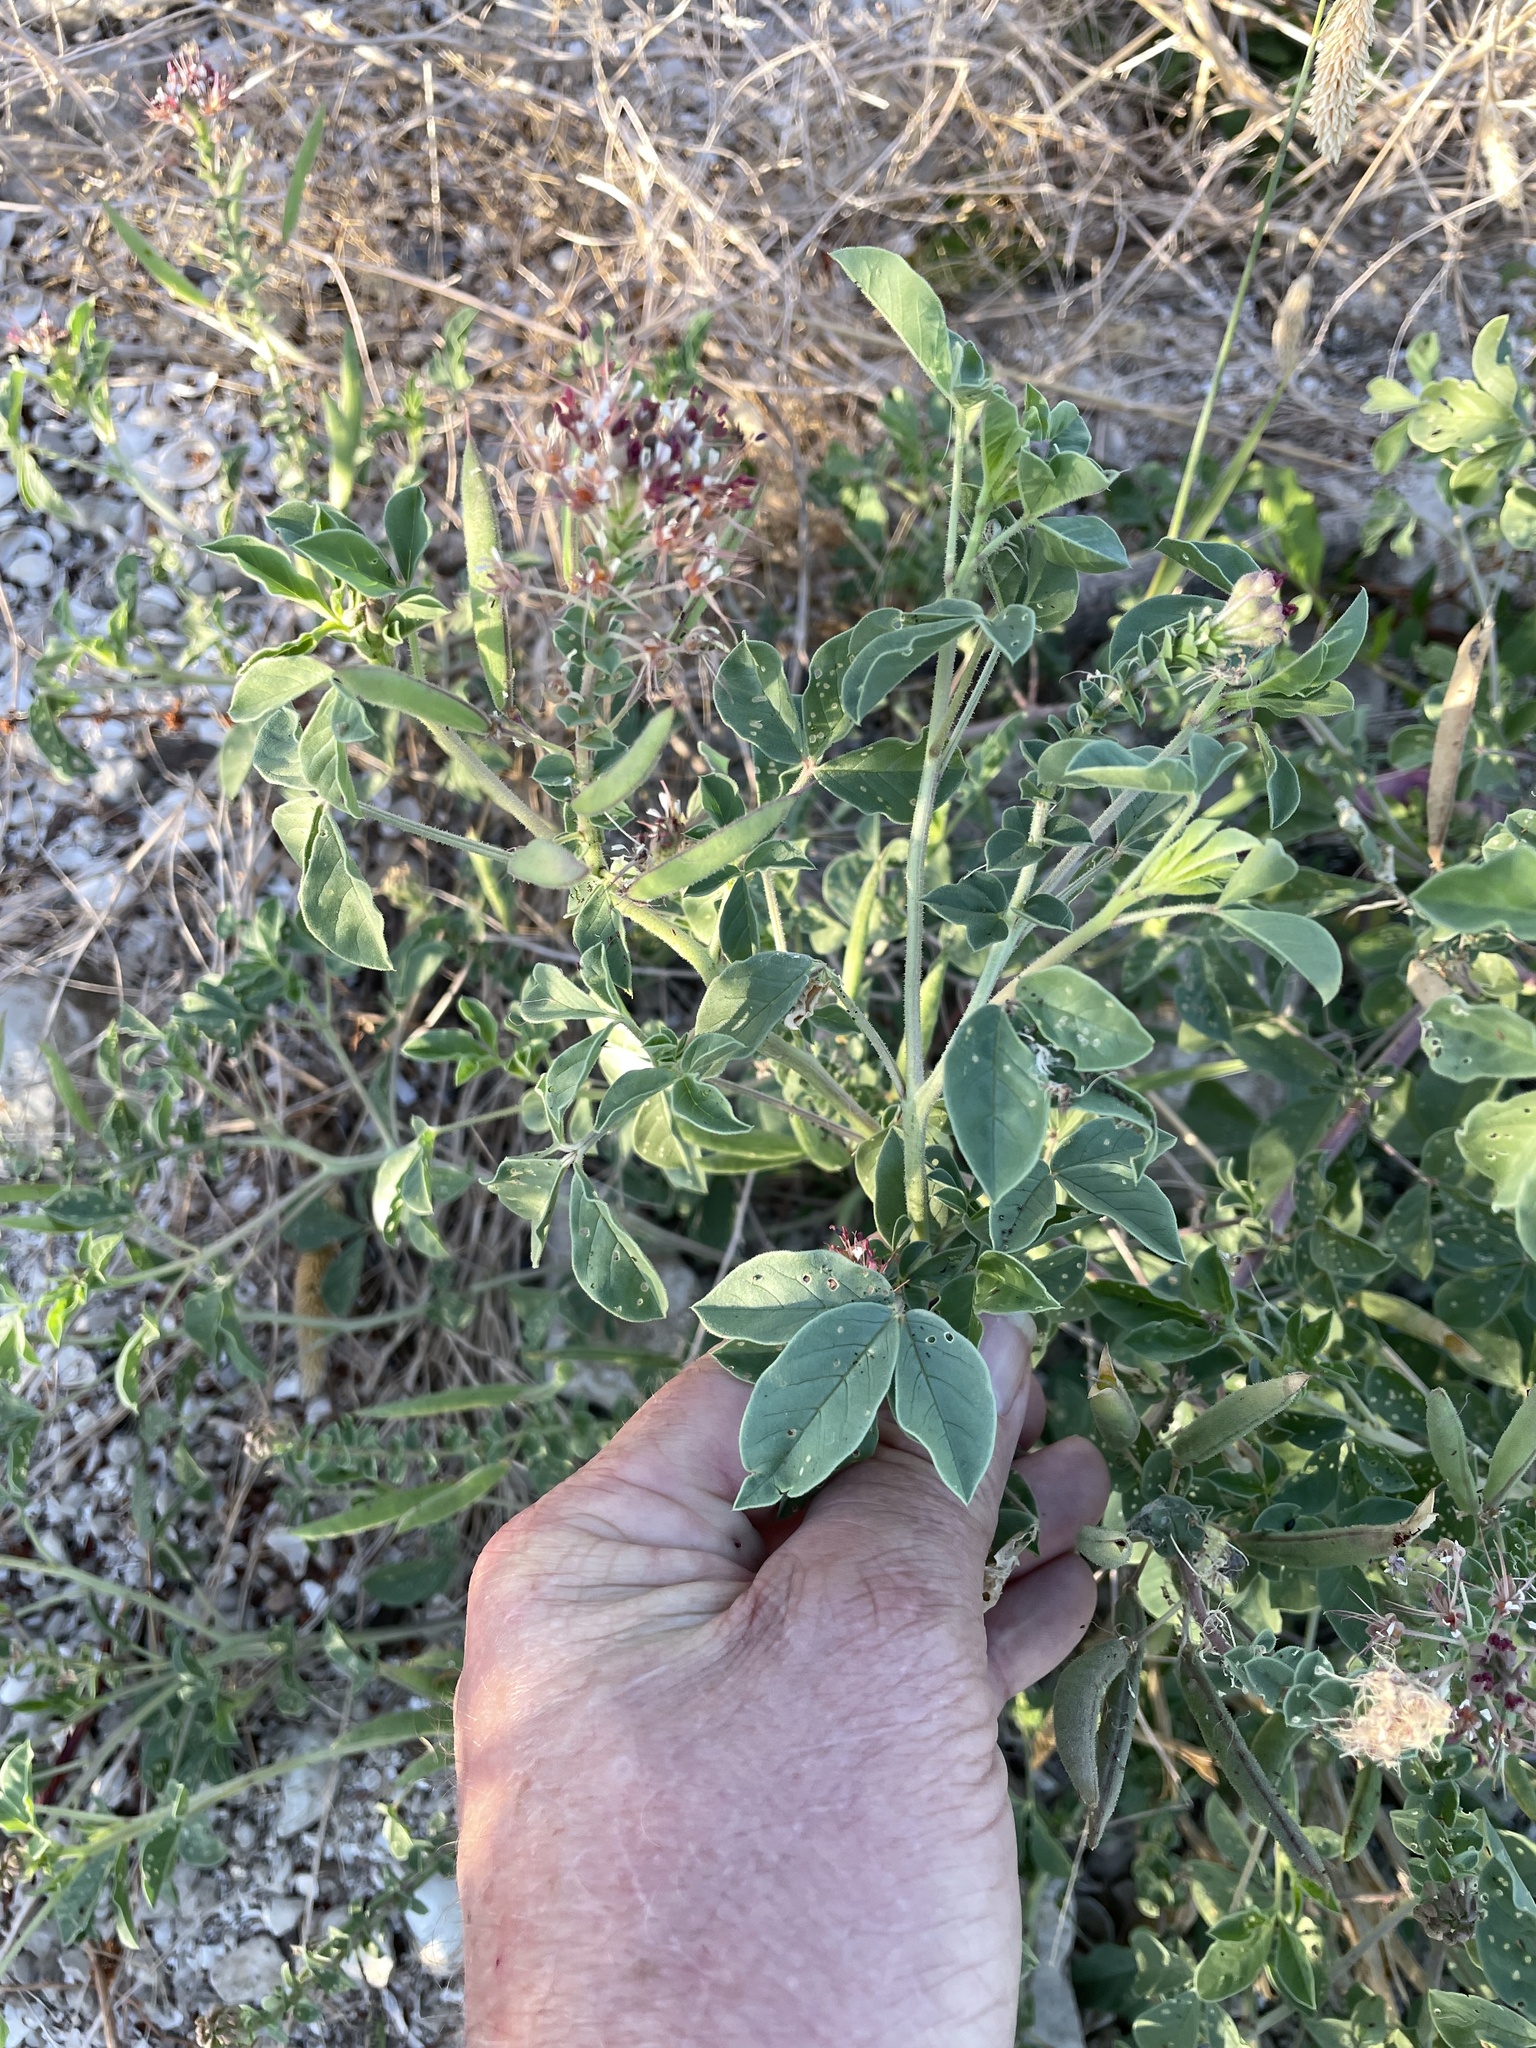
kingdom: Plantae
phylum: Tracheophyta
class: Magnoliopsida
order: Brassicales
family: Cleomaceae
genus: Polanisia
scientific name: Polanisia dodecandra
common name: Clammyweed
